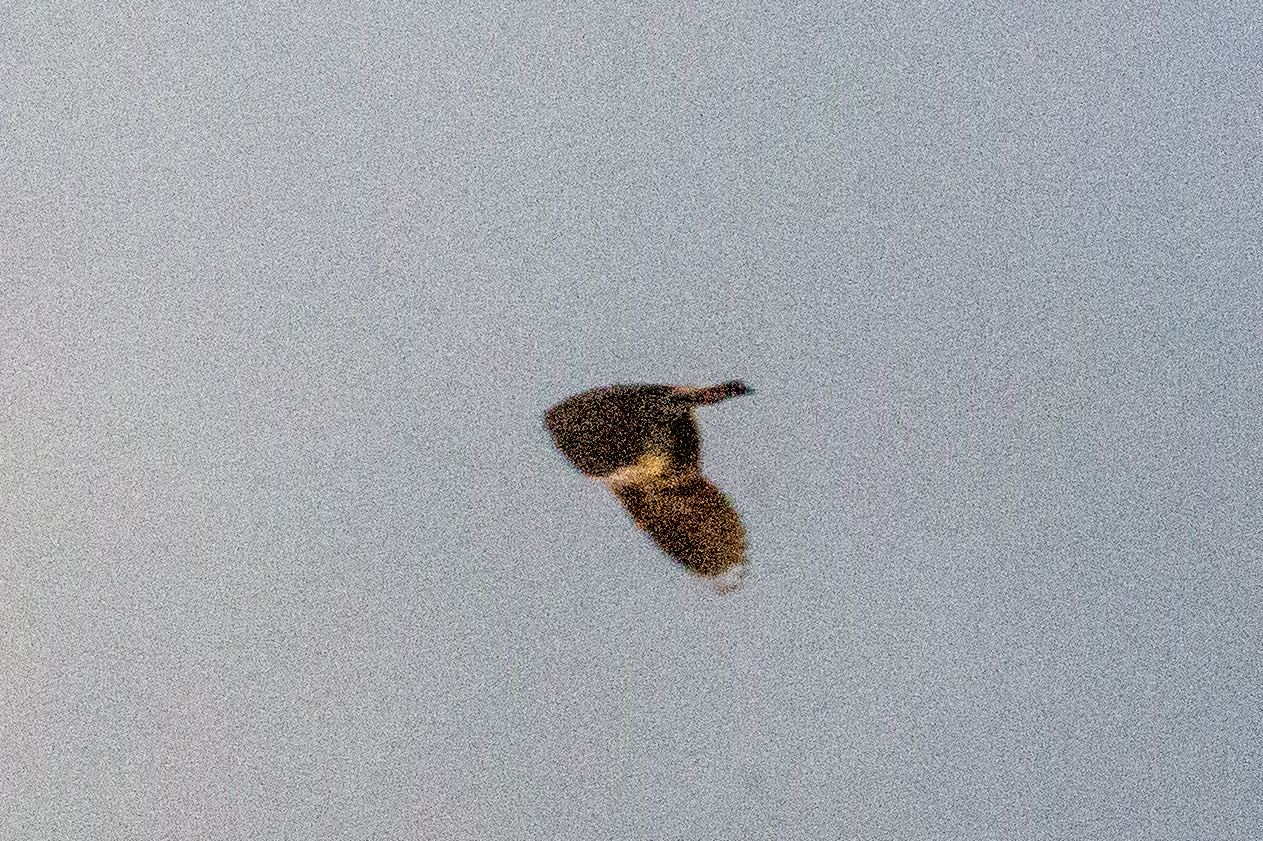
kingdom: Animalia
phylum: Chordata
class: Aves
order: Charadriiformes
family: Charadriidae
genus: Vanellus
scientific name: Vanellus vanellus
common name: Northern lapwing
